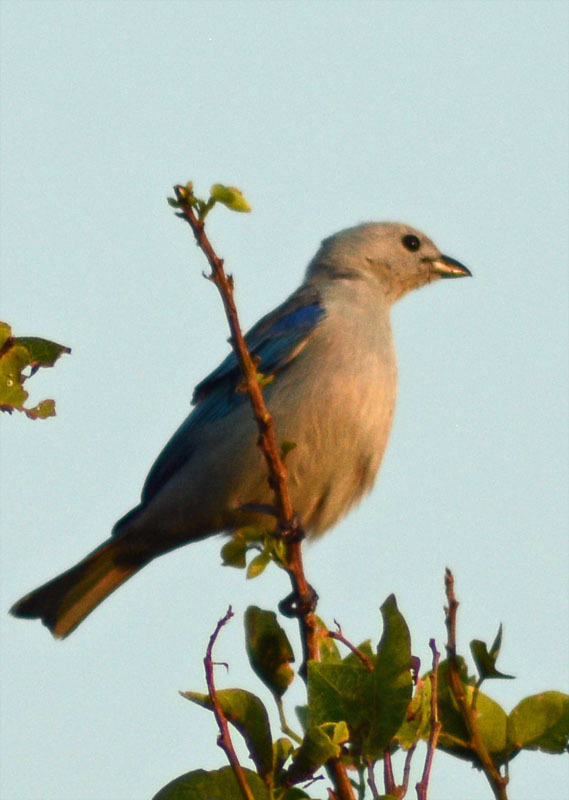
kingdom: Animalia
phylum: Chordata
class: Aves
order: Passeriformes
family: Thraupidae
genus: Thraupis
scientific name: Thraupis episcopus
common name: Blue-grey tanager
